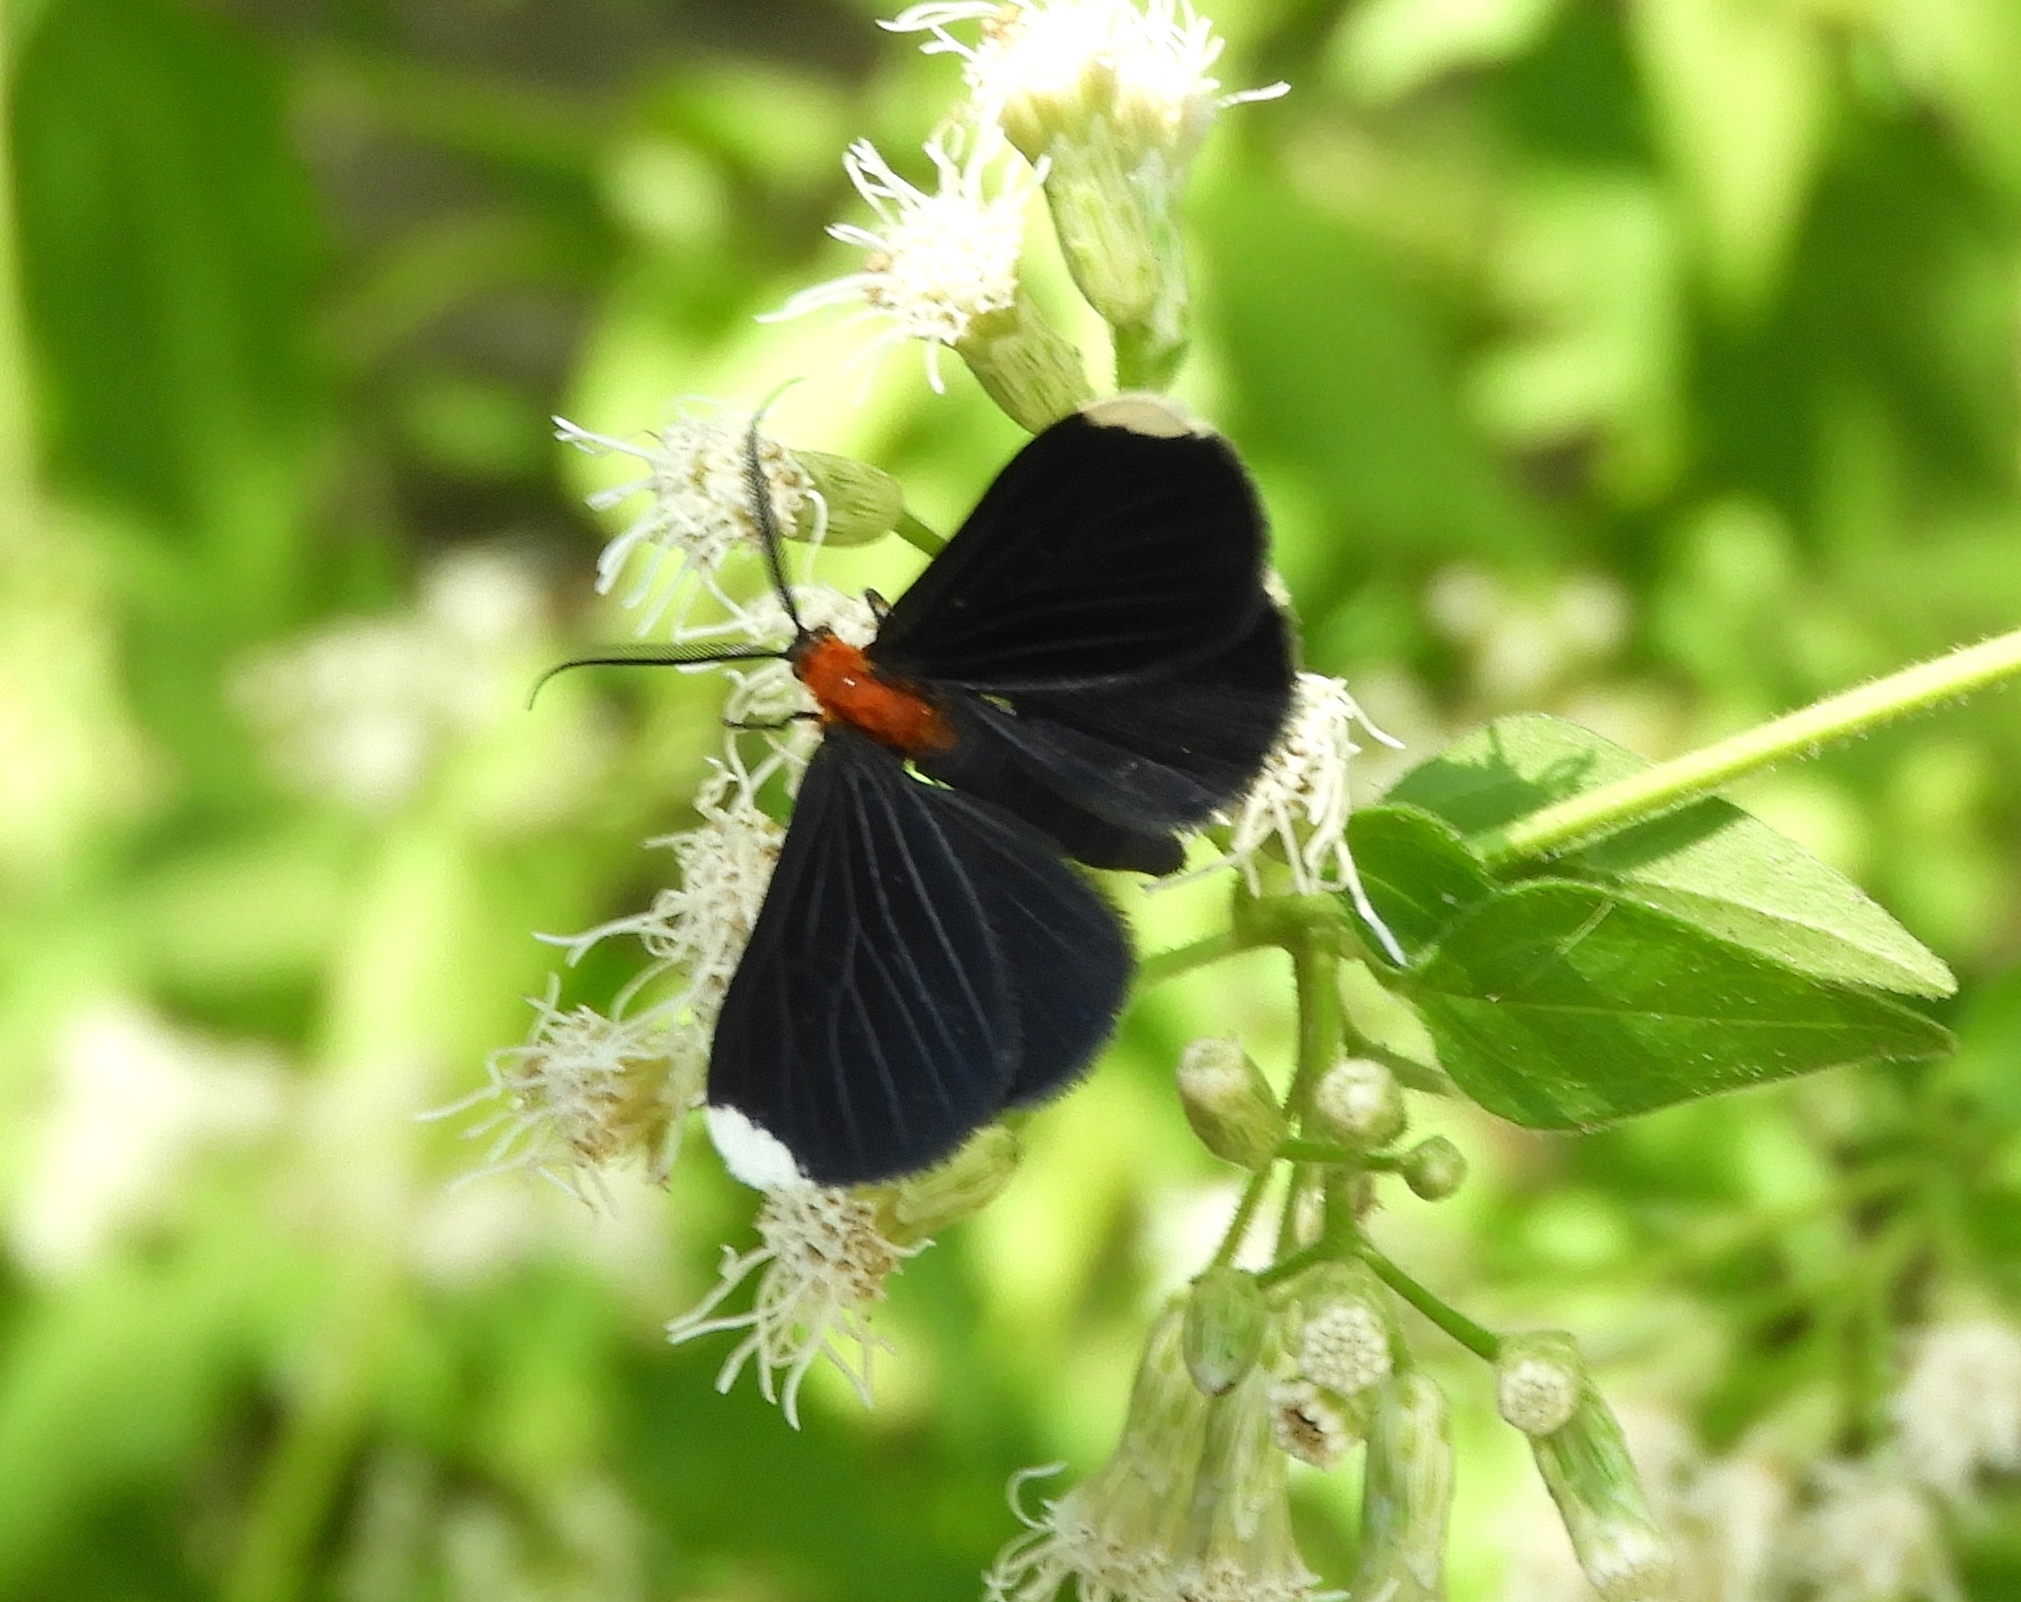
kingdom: Animalia
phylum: Arthropoda
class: Insecta
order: Lepidoptera
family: Geometridae
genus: Melanchroia
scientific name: Melanchroia chephise
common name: White-tipped black
